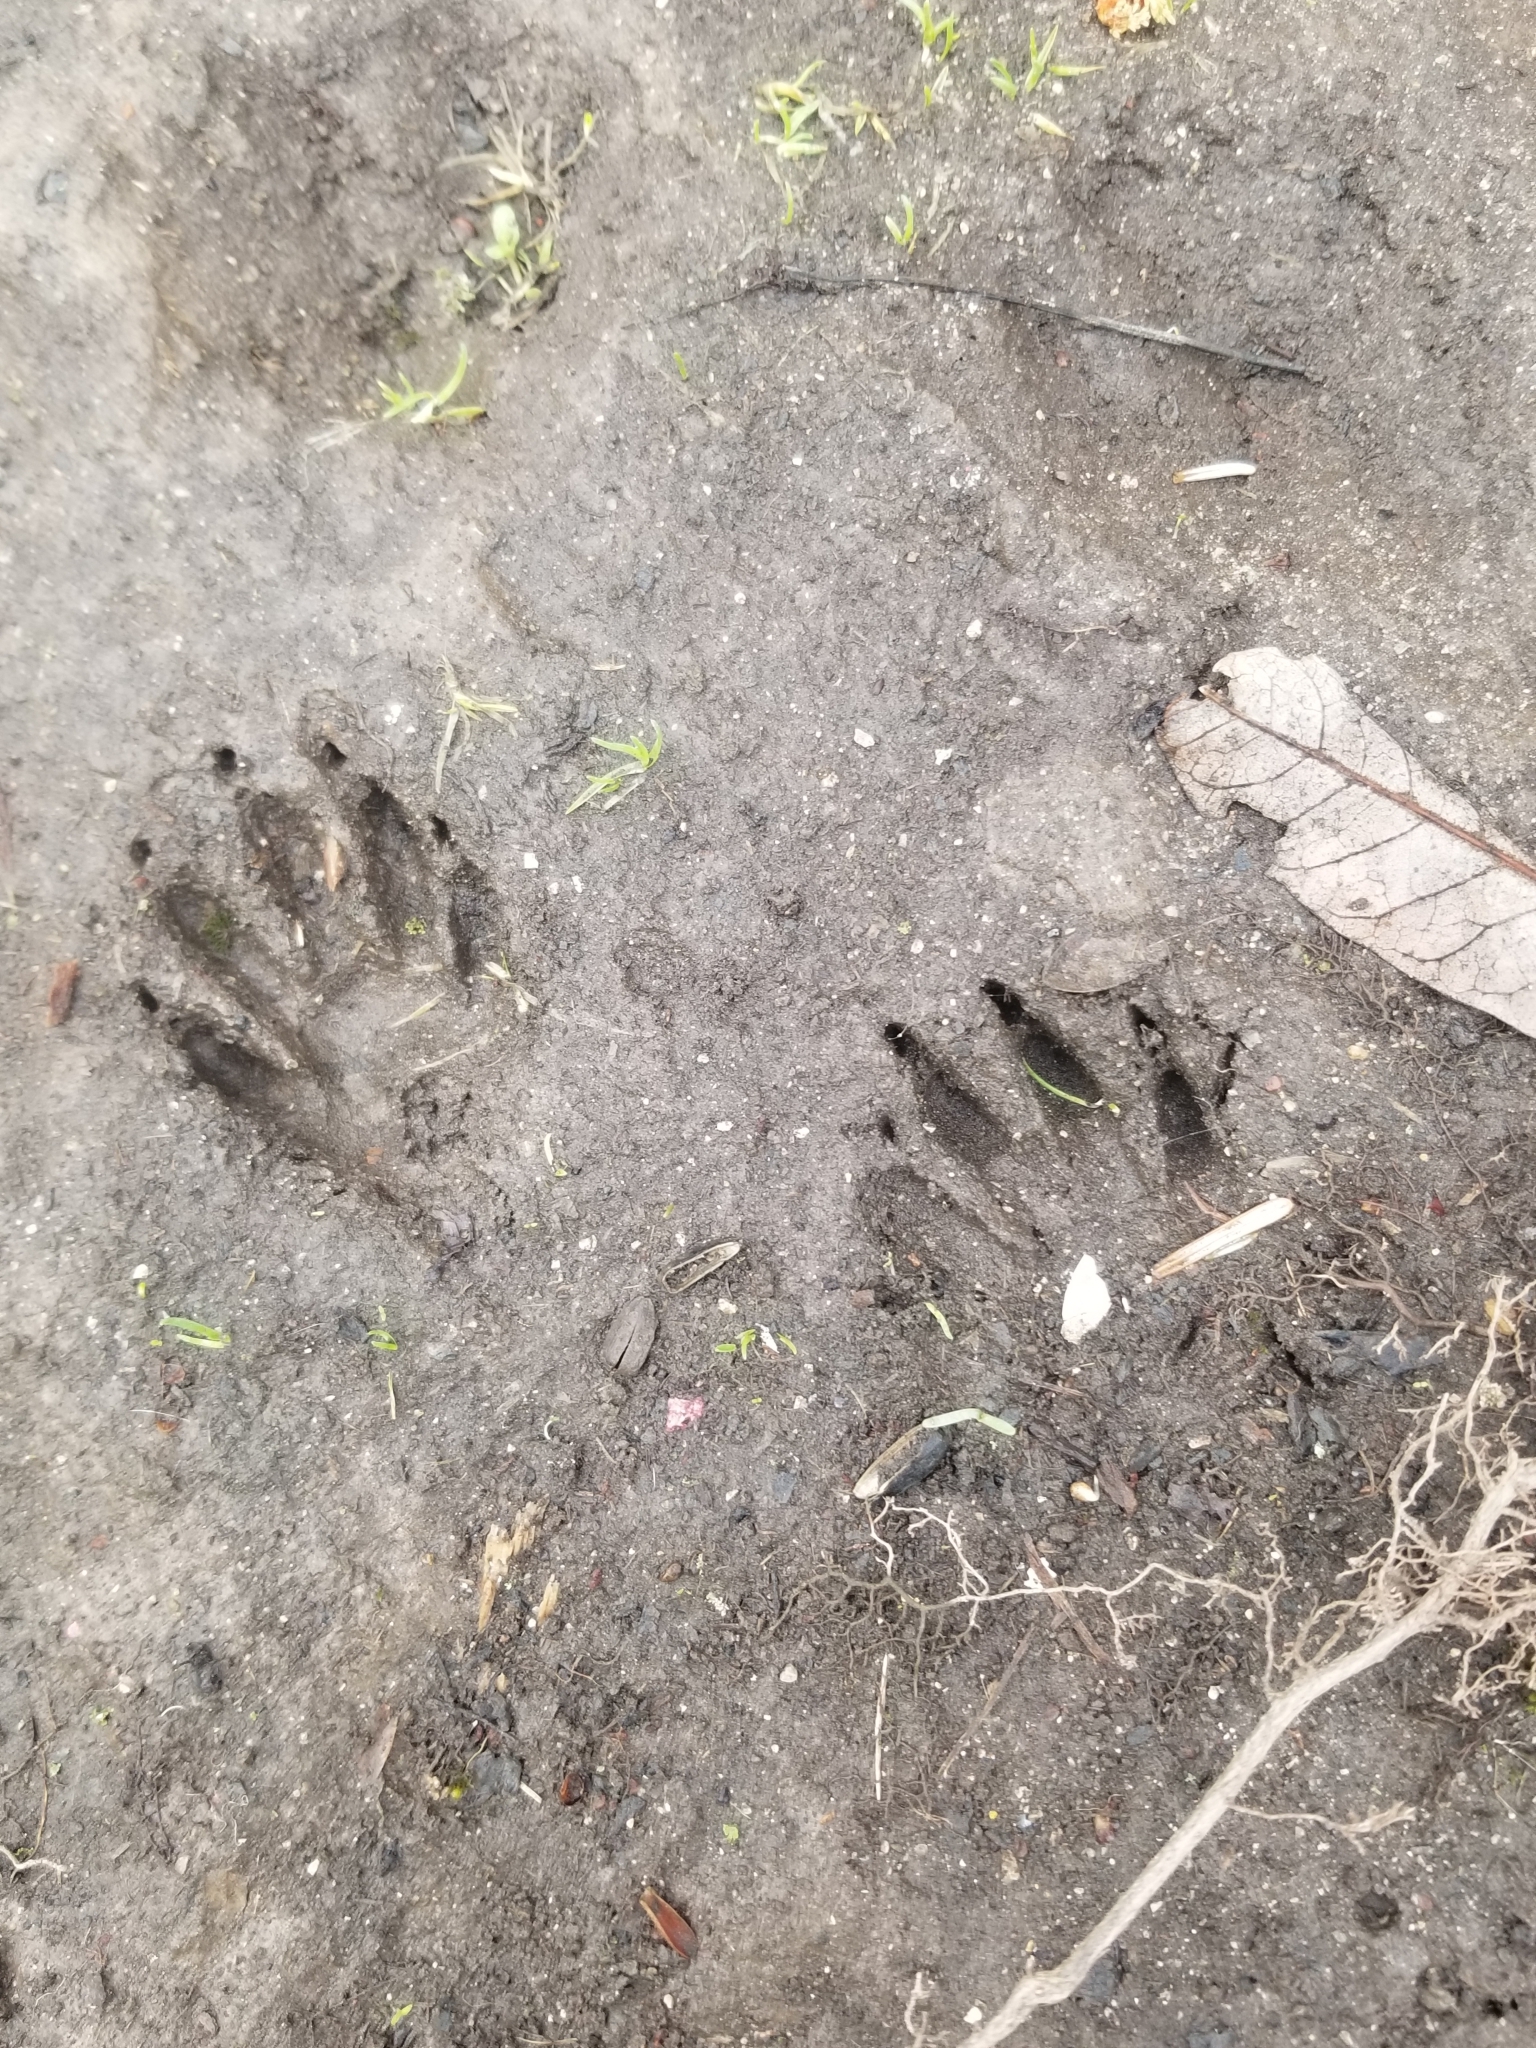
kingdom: Animalia
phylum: Chordata
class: Mammalia
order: Carnivora
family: Procyonidae
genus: Procyon
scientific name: Procyon lotor
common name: Raccoon
